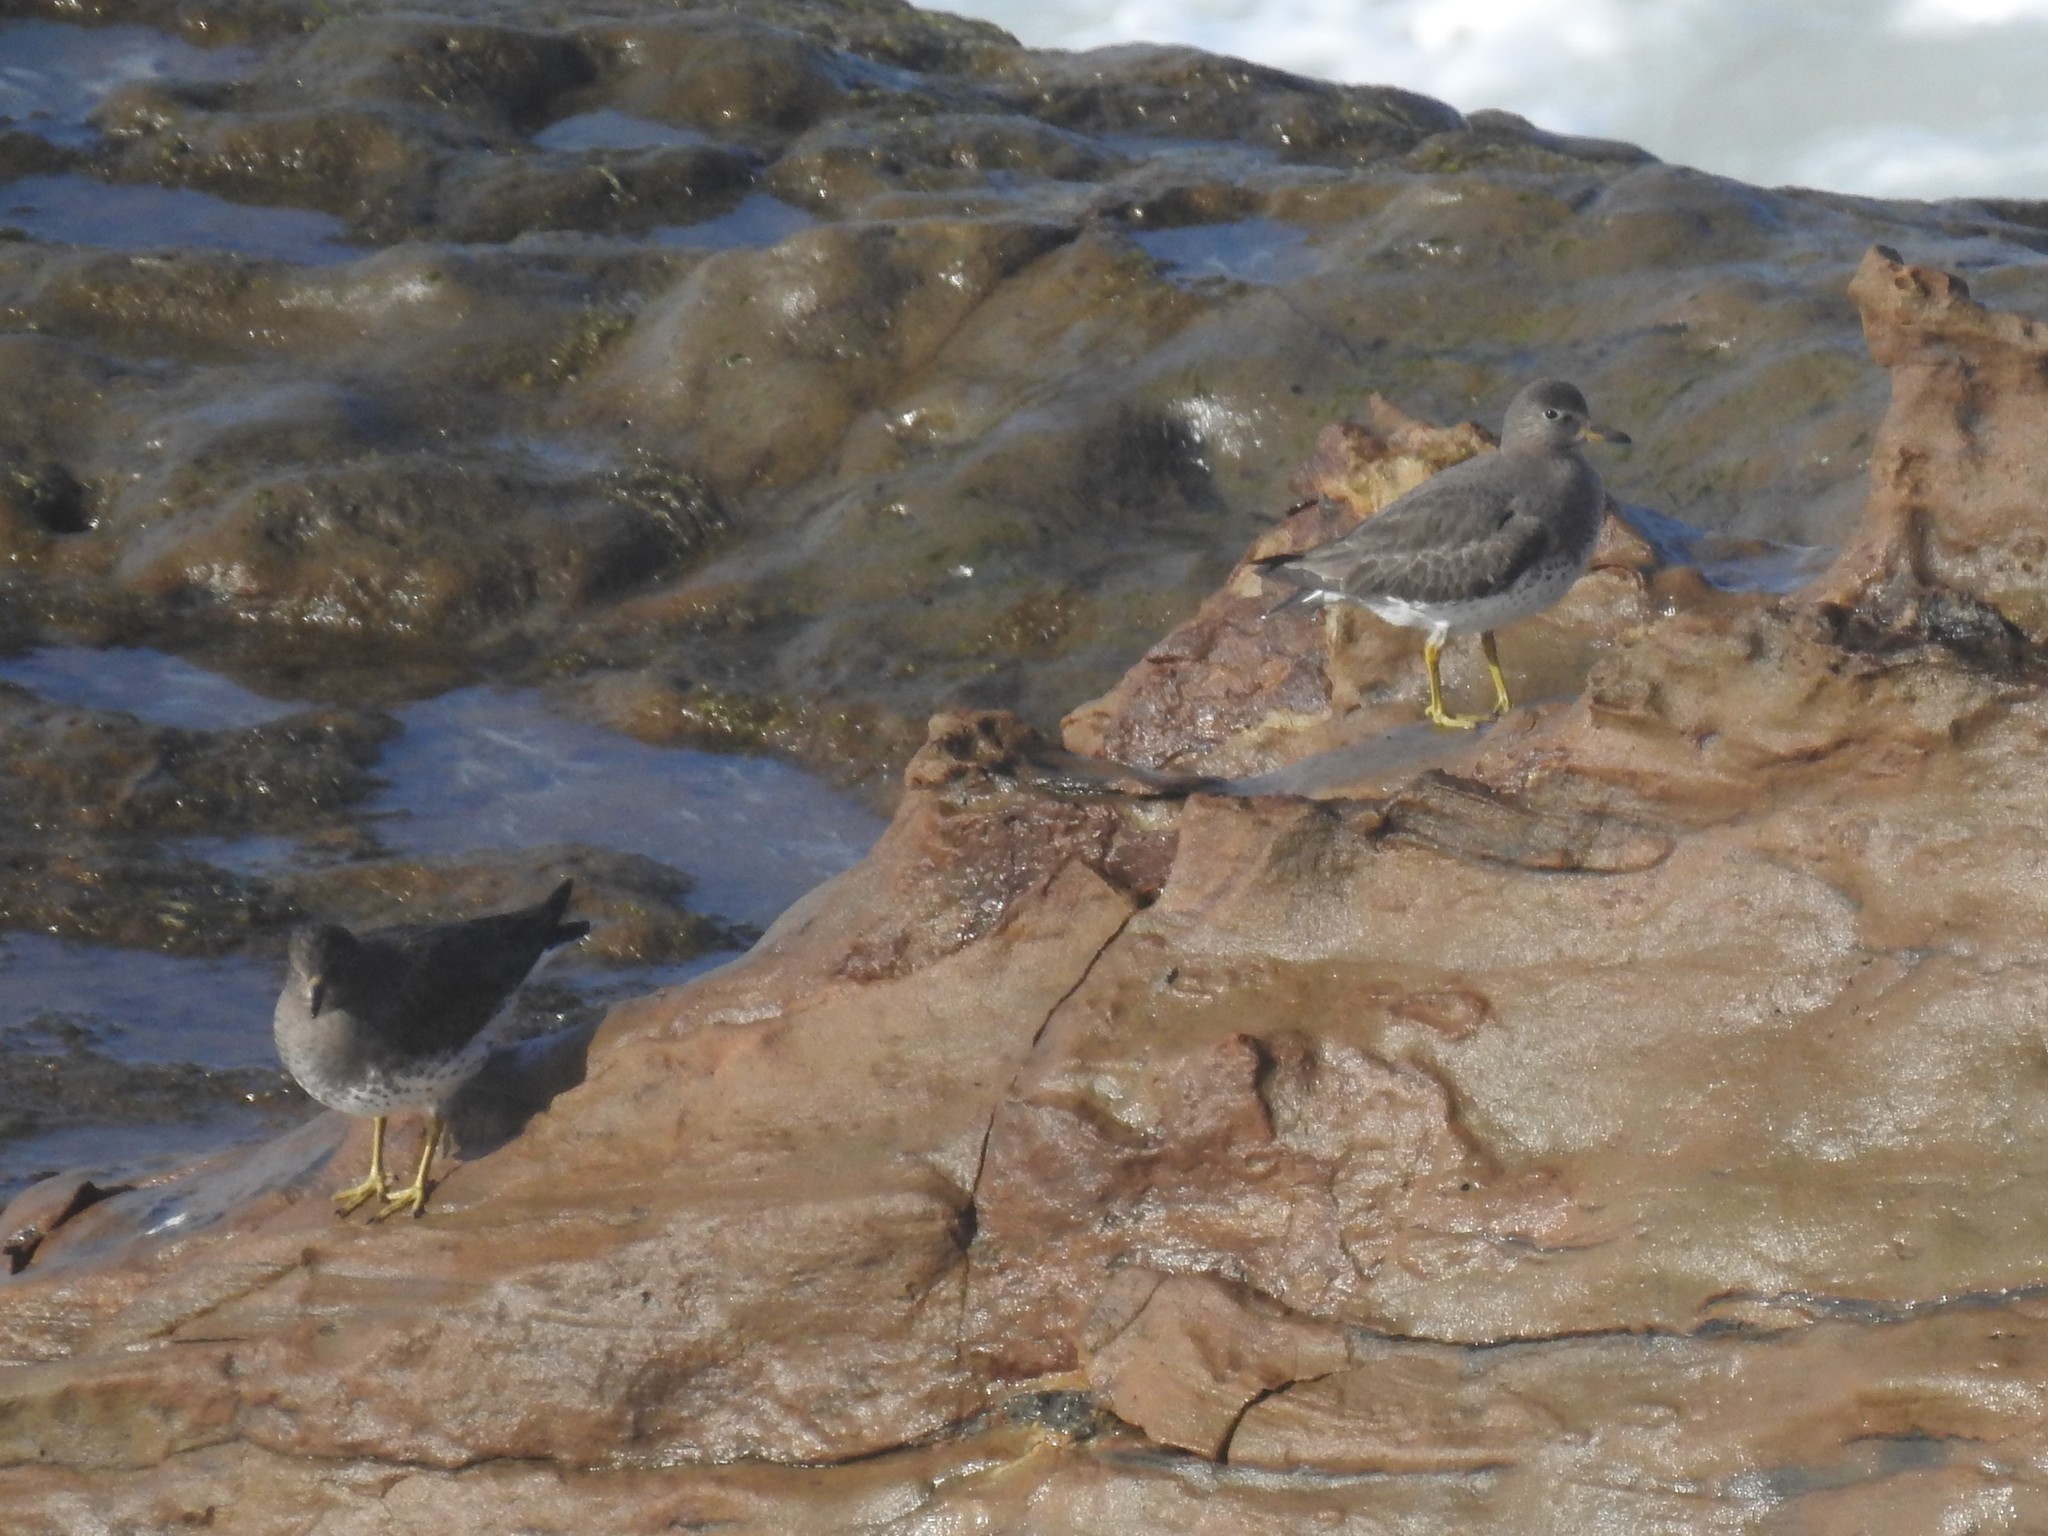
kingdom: Animalia
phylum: Chordata
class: Aves
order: Charadriiformes
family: Scolopacidae
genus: Calidris
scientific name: Calidris virgata
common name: Surfbird
